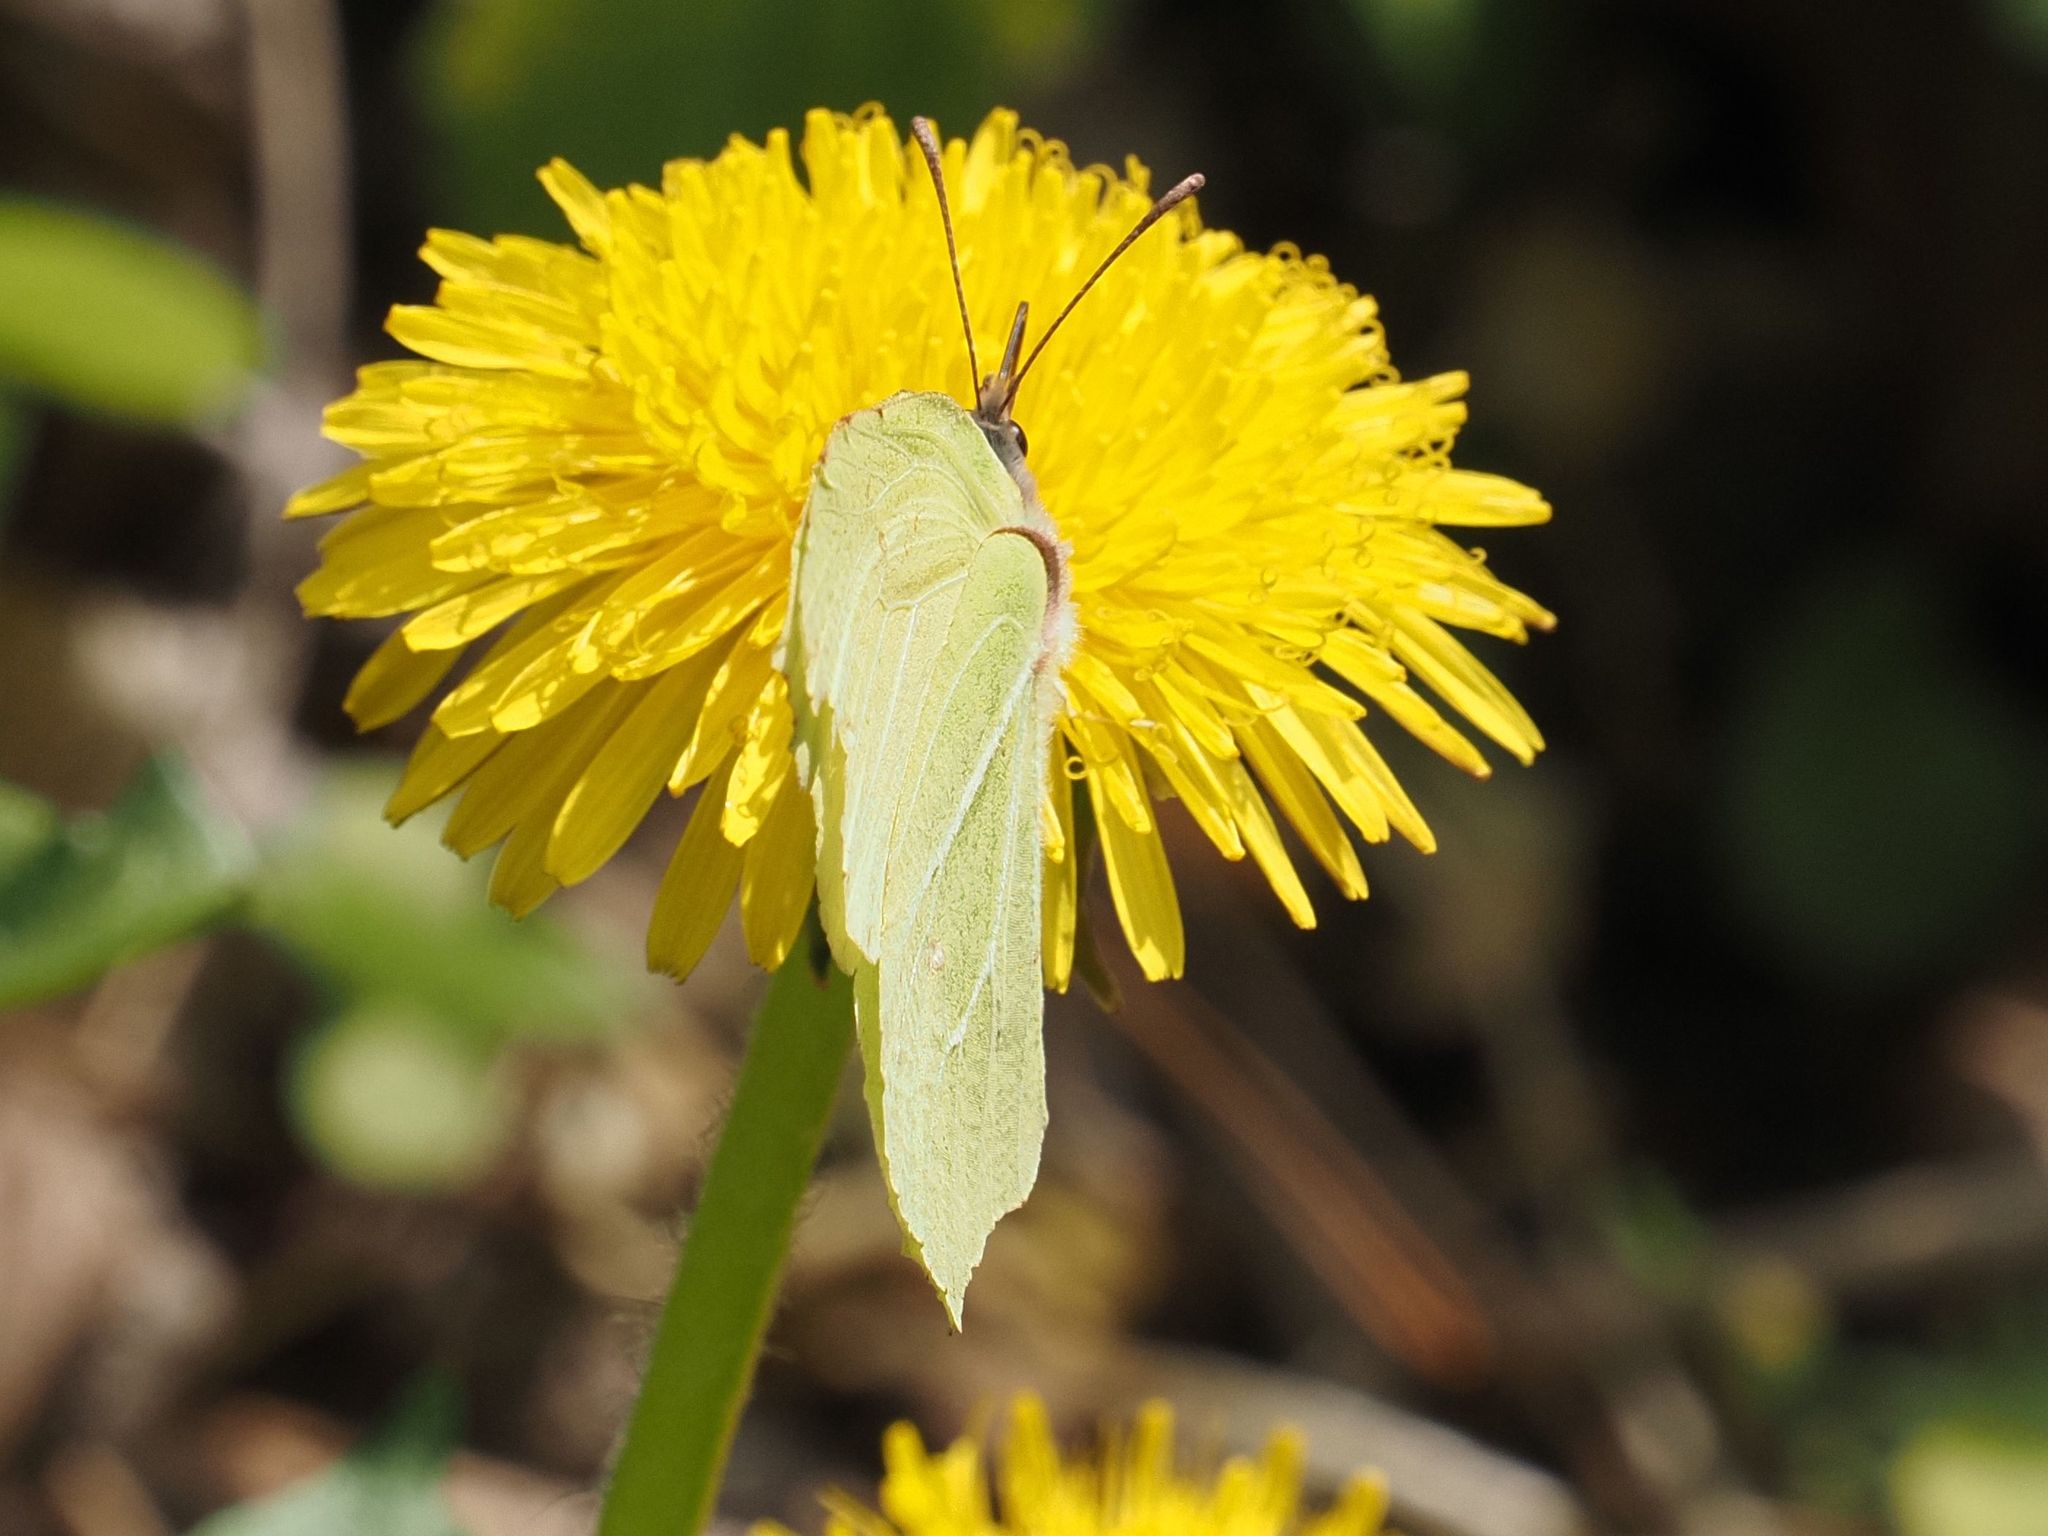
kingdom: Animalia
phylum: Arthropoda
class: Insecta
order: Lepidoptera
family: Pieridae
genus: Gonepteryx
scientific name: Gonepteryx rhamni
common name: Brimstone
